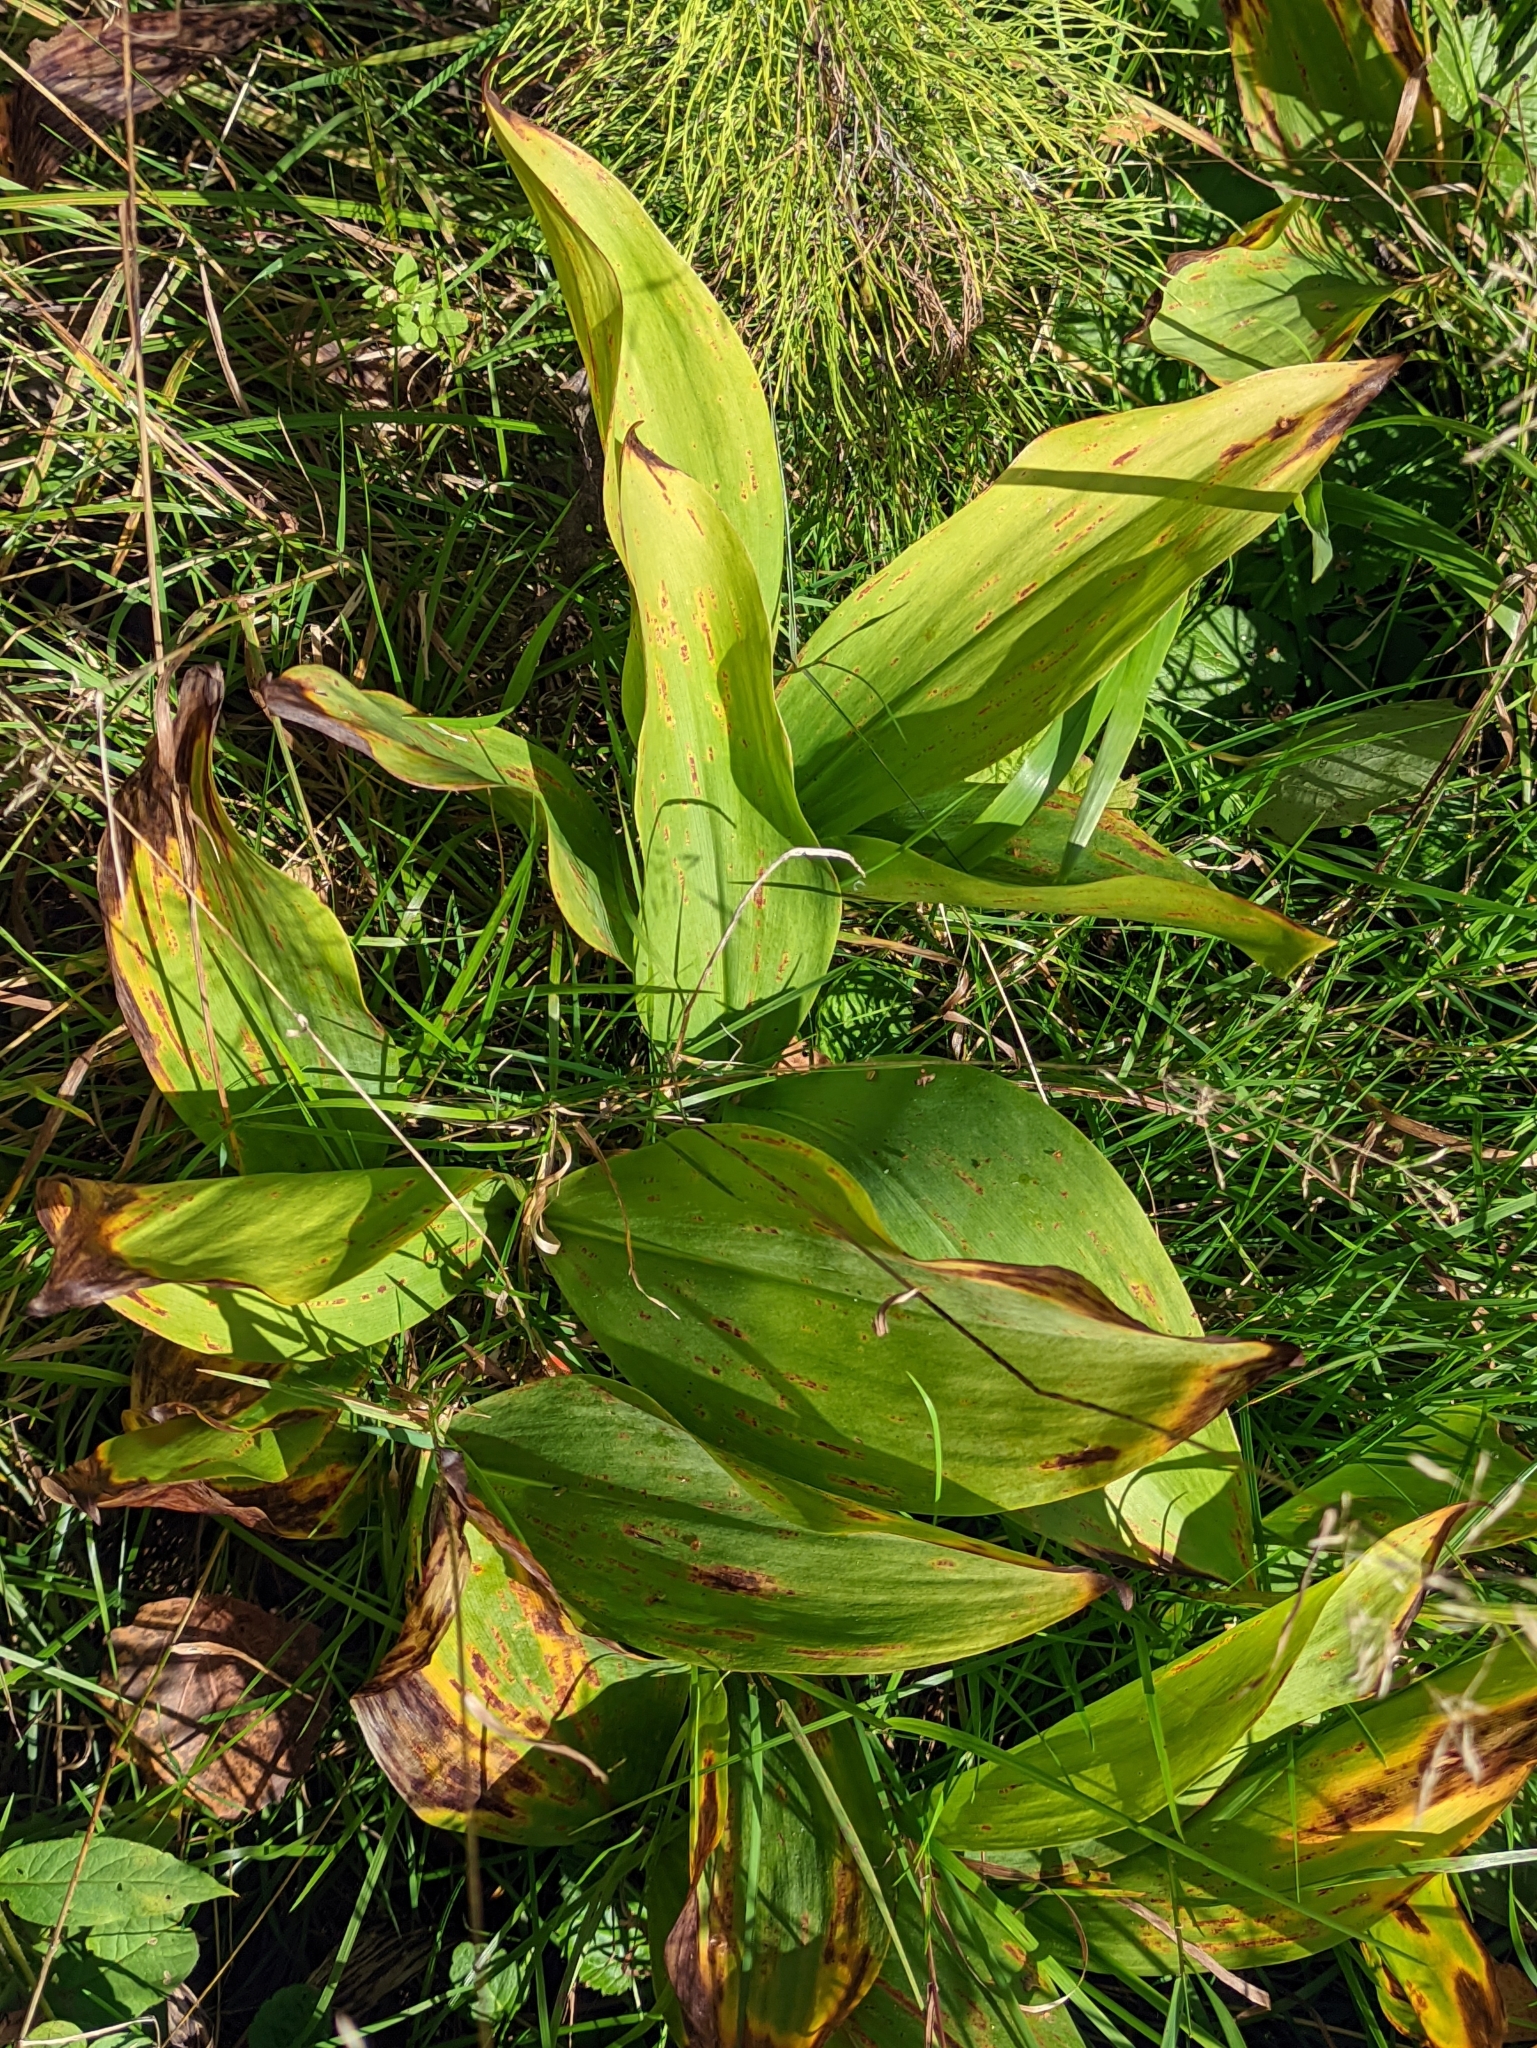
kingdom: Plantae
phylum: Tracheophyta
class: Liliopsida
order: Asparagales
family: Asparagaceae
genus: Convallaria
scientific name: Convallaria majalis
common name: Lily-of-the-valley
